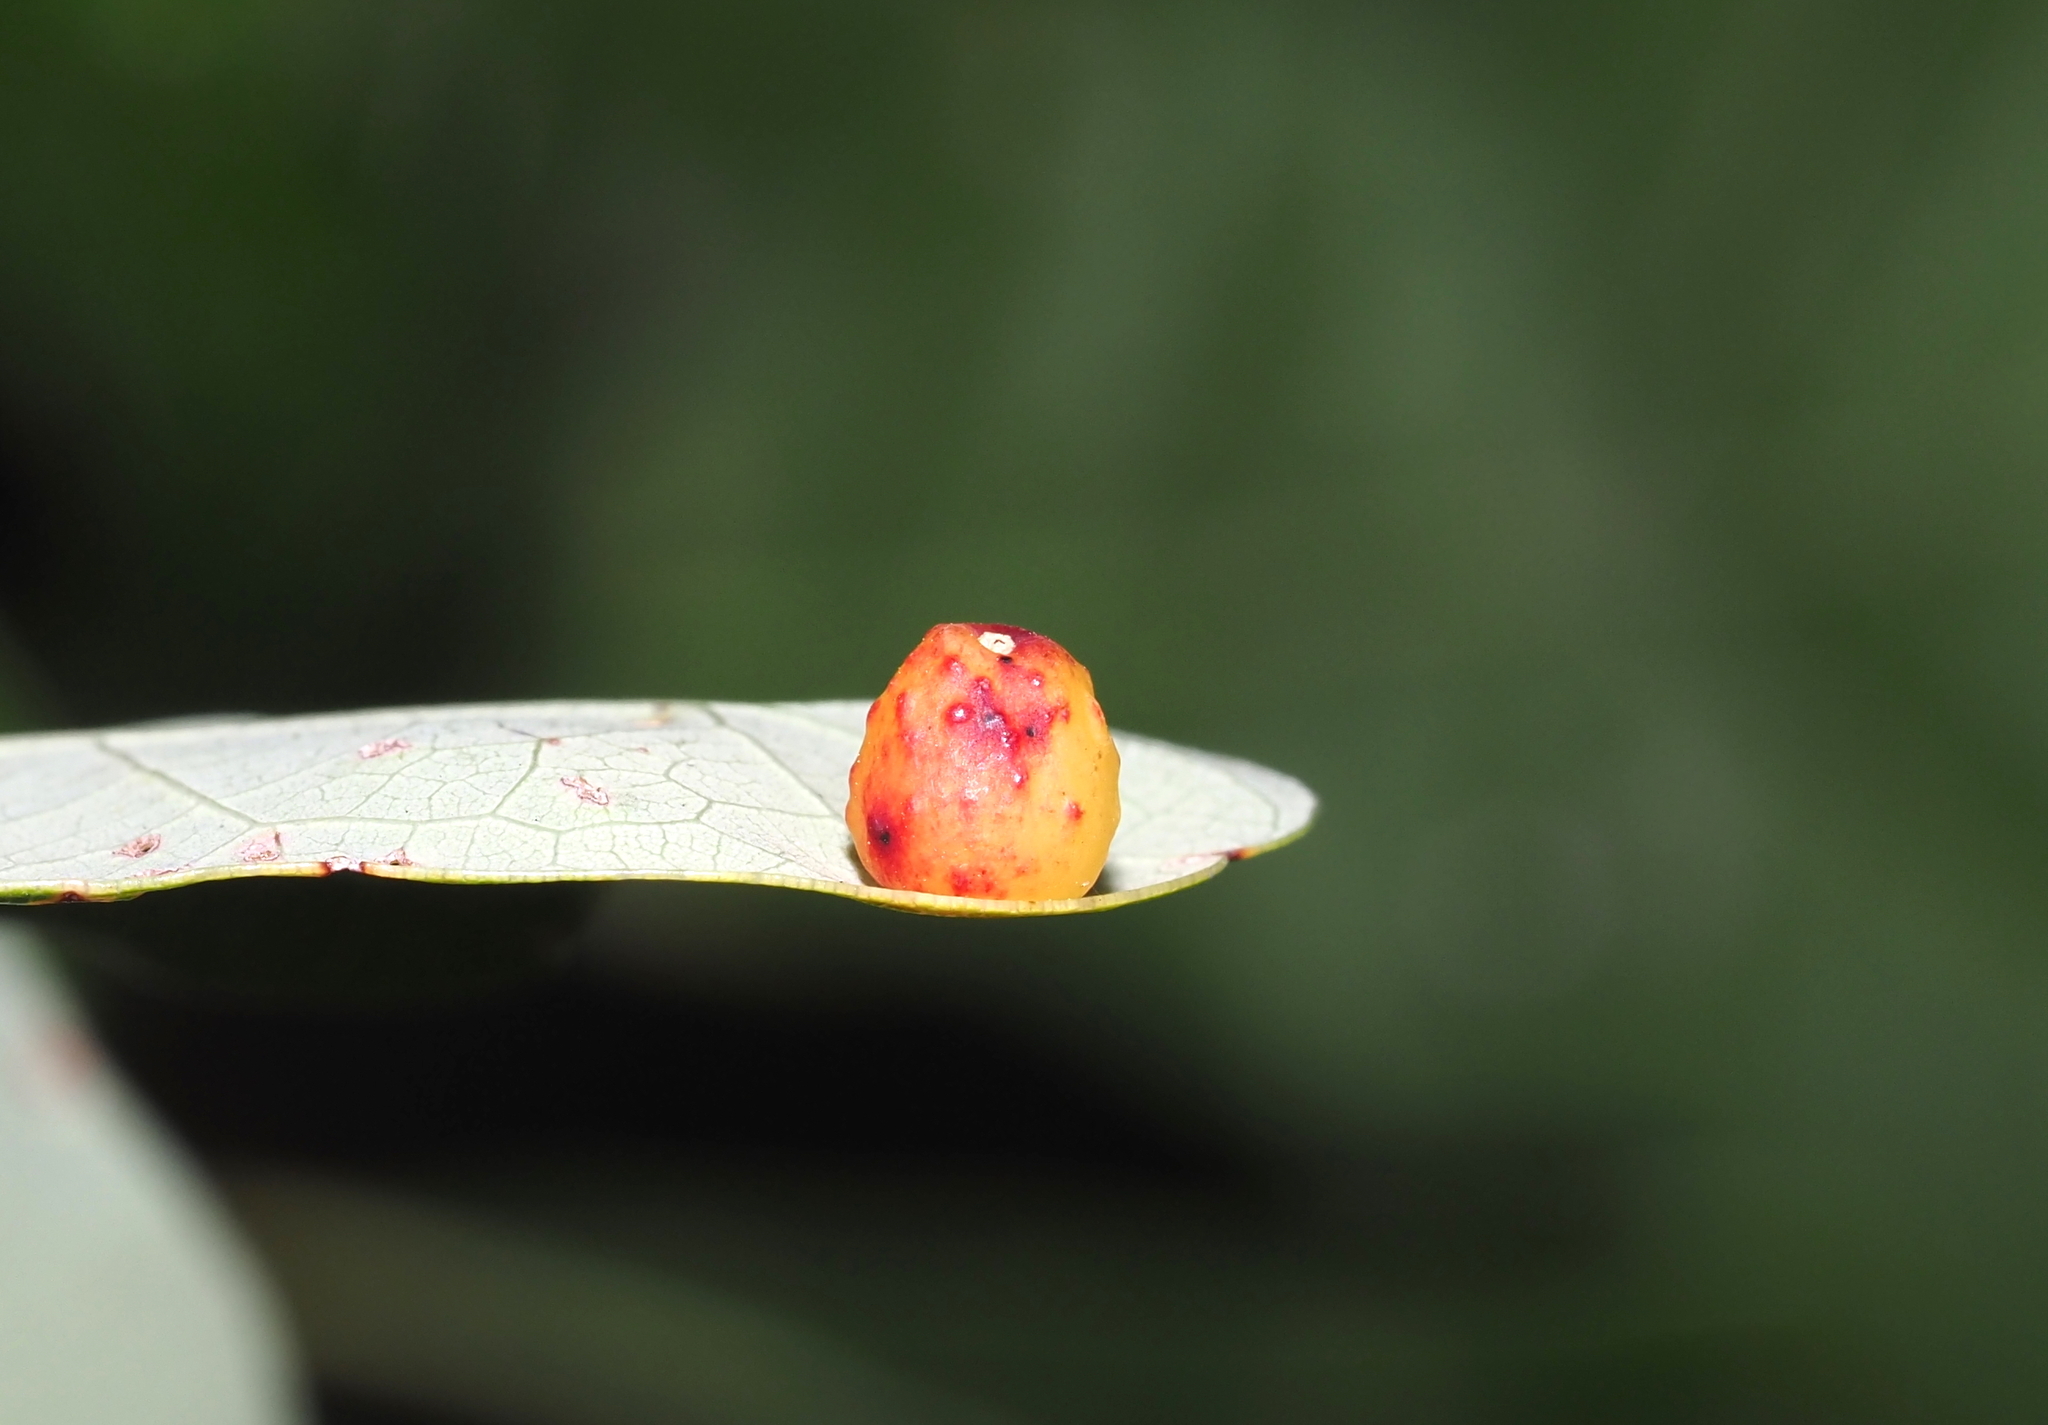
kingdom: Animalia
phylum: Arthropoda
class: Insecta
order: Hymenoptera
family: Cynipidae
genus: Andricus
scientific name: Andricus
